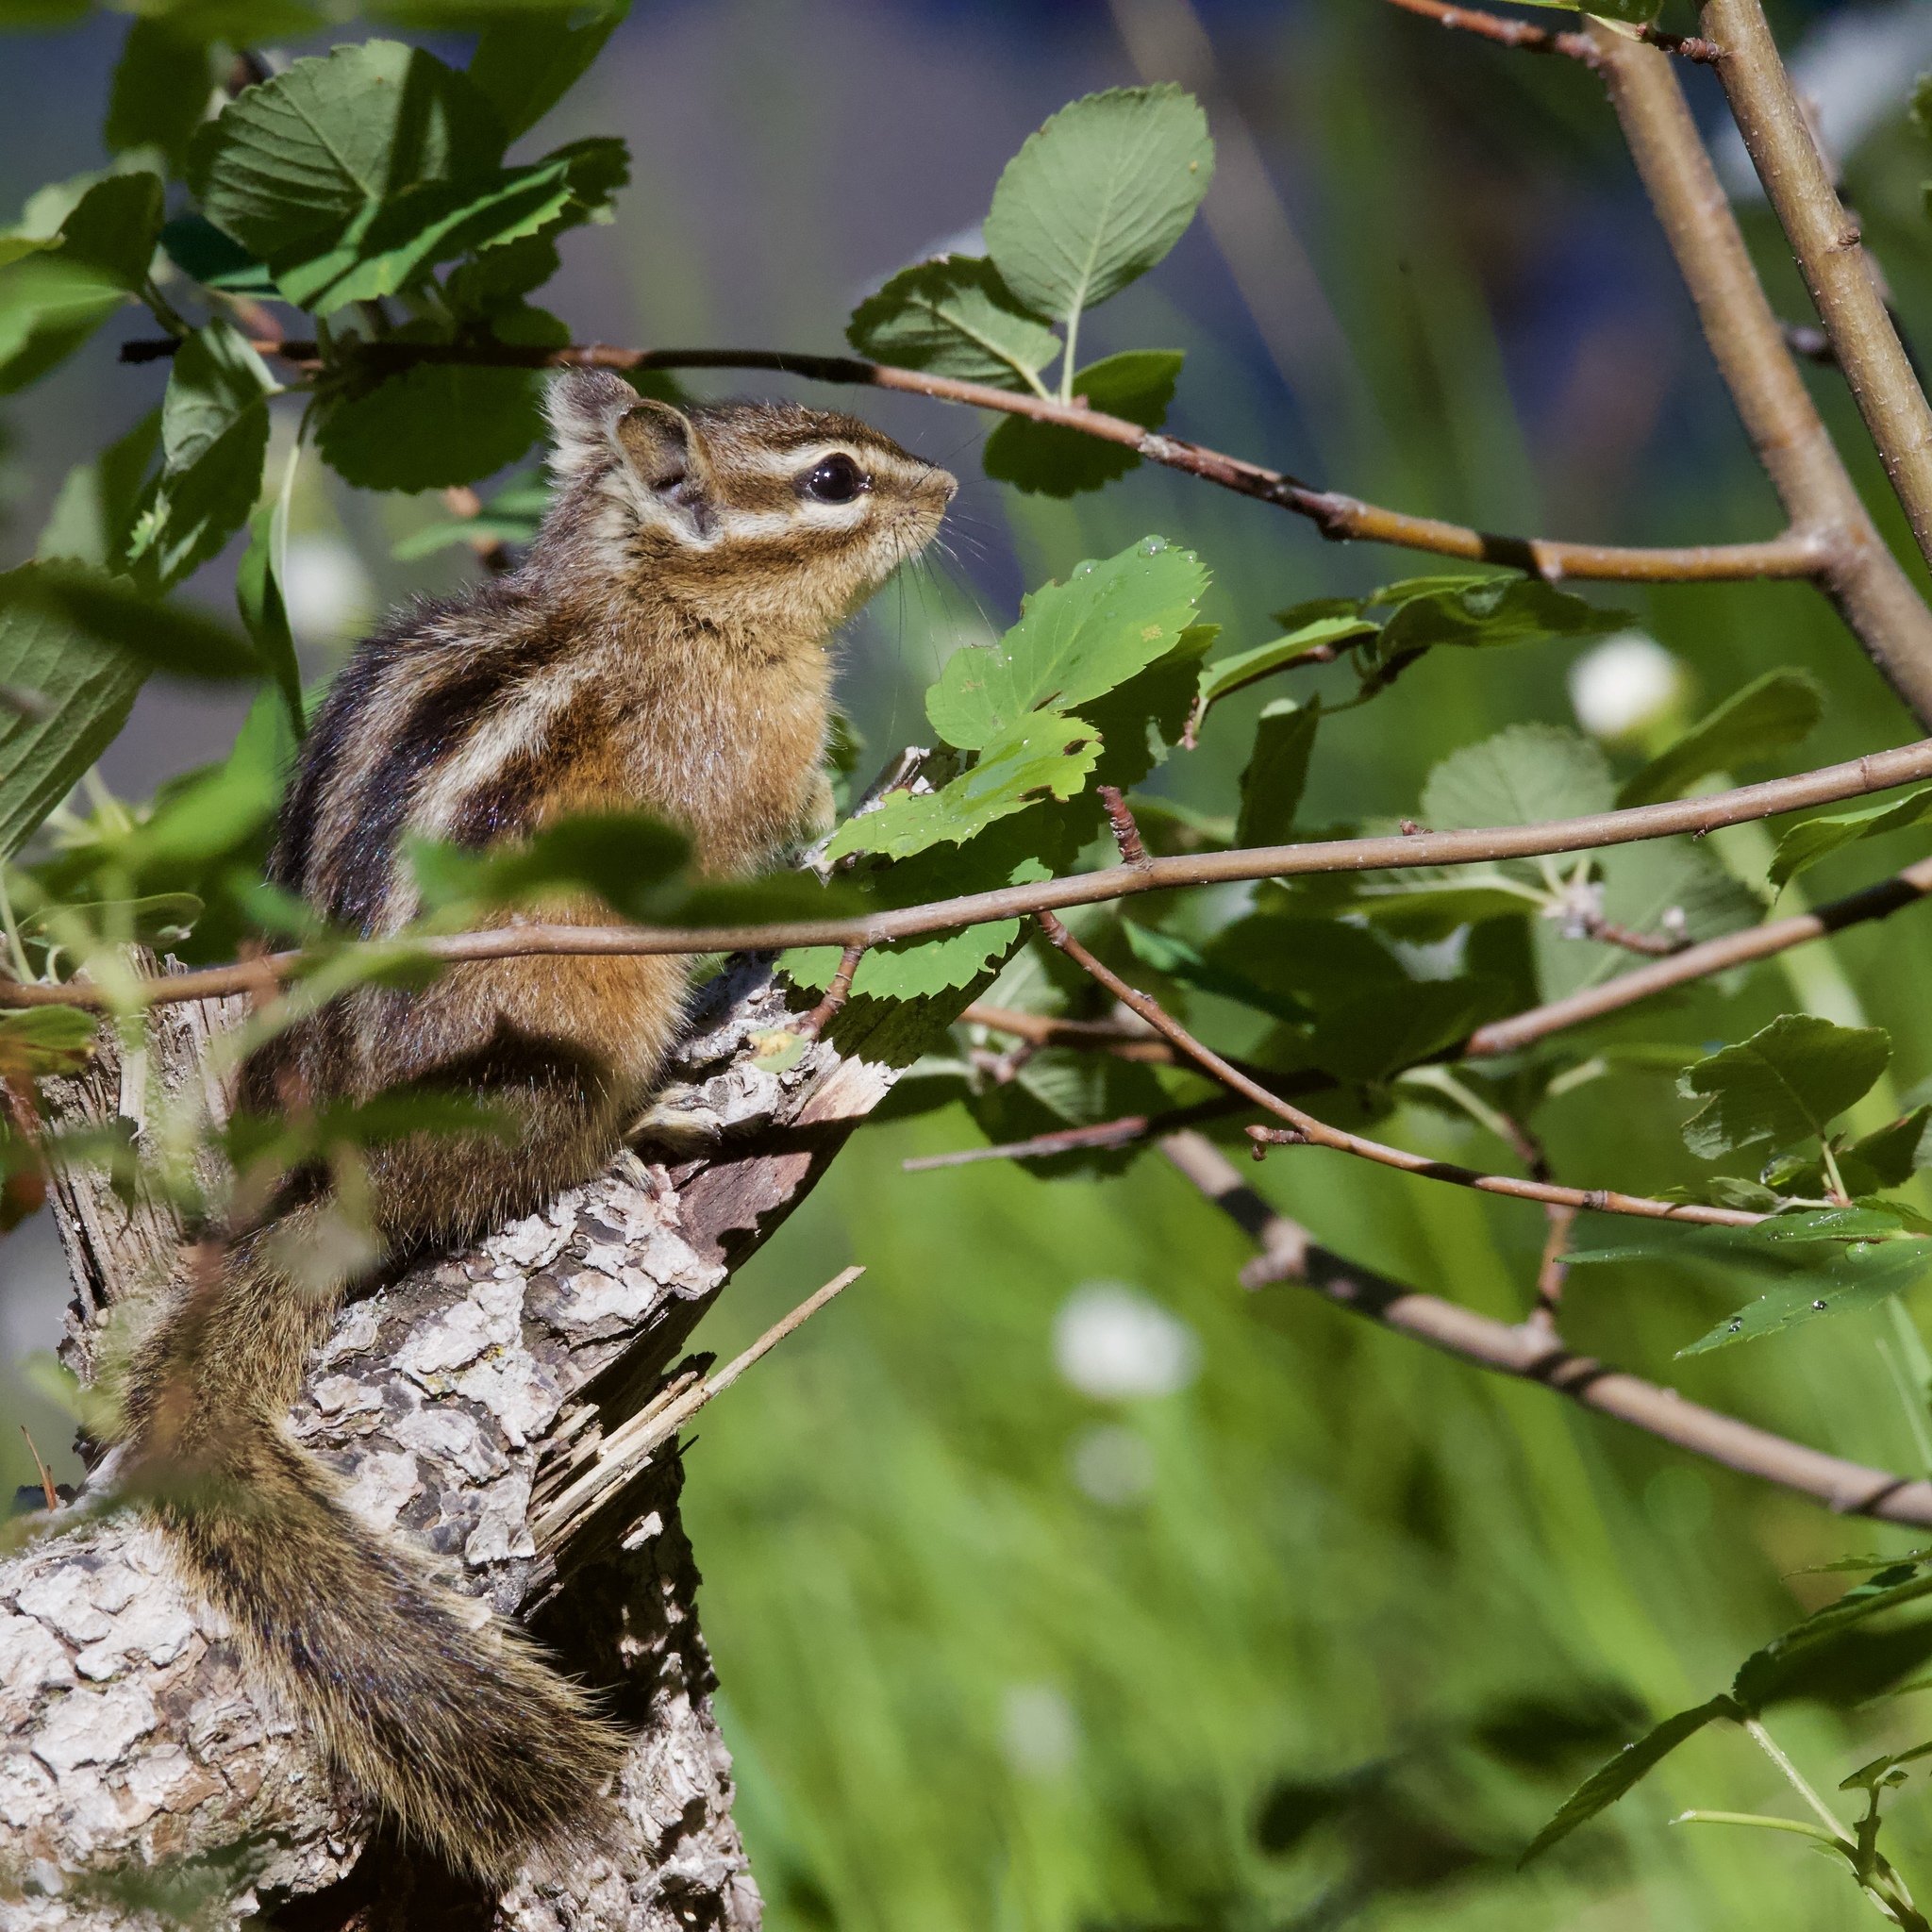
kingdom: Animalia
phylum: Chordata
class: Mammalia
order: Rodentia
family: Sciuridae
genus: Tamias
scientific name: Tamias minimus
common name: Least chipmunk
